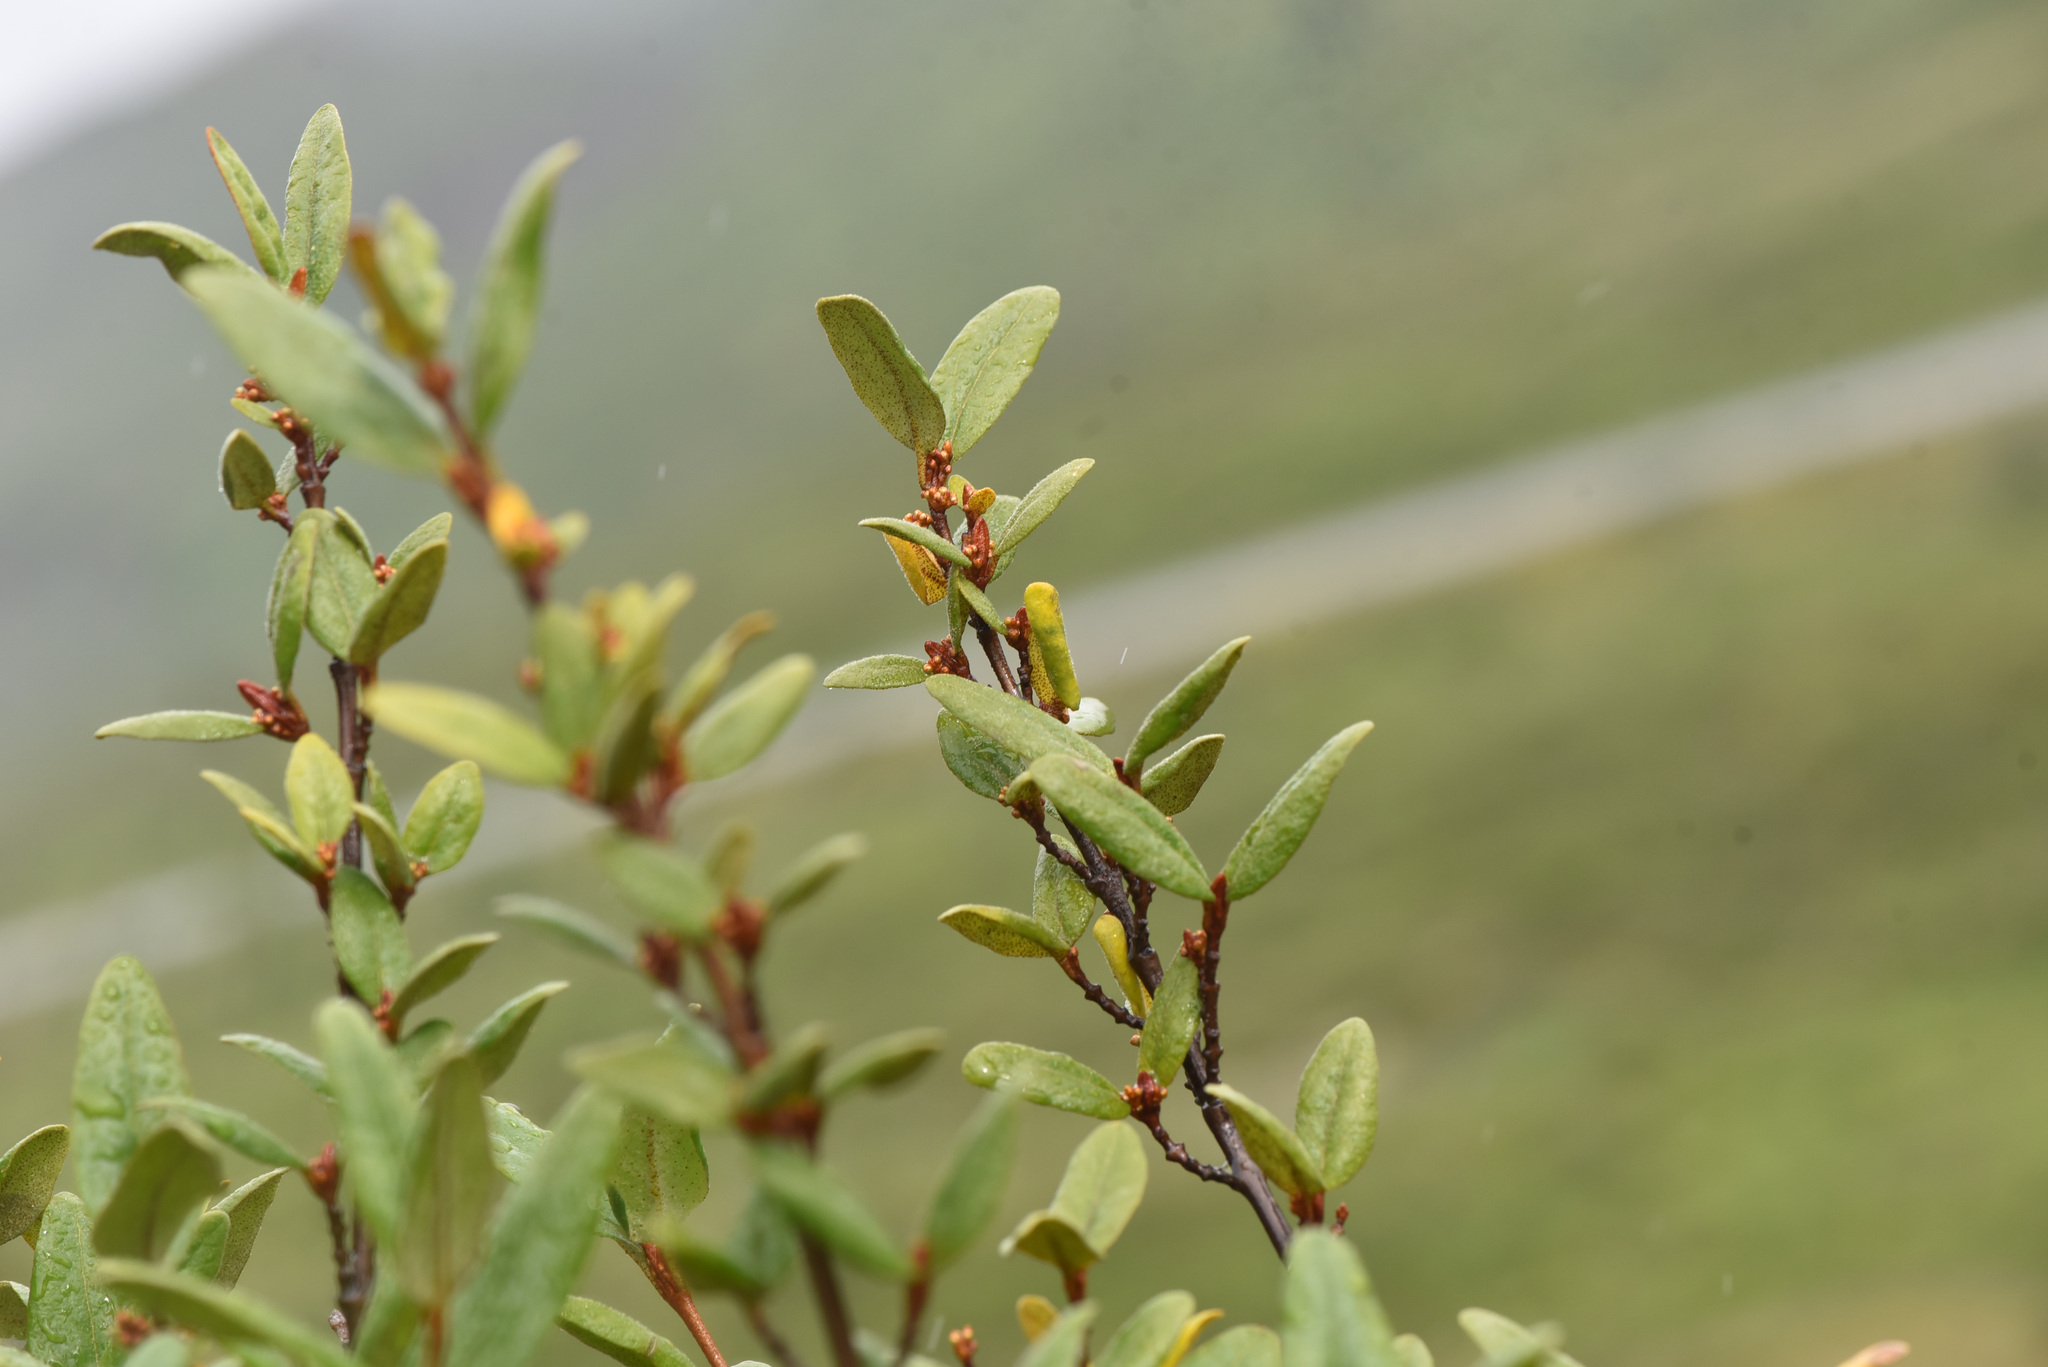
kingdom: Plantae
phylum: Tracheophyta
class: Magnoliopsida
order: Rosales
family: Elaeagnaceae
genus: Shepherdia
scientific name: Shepherdia canadensis
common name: Soapberry
